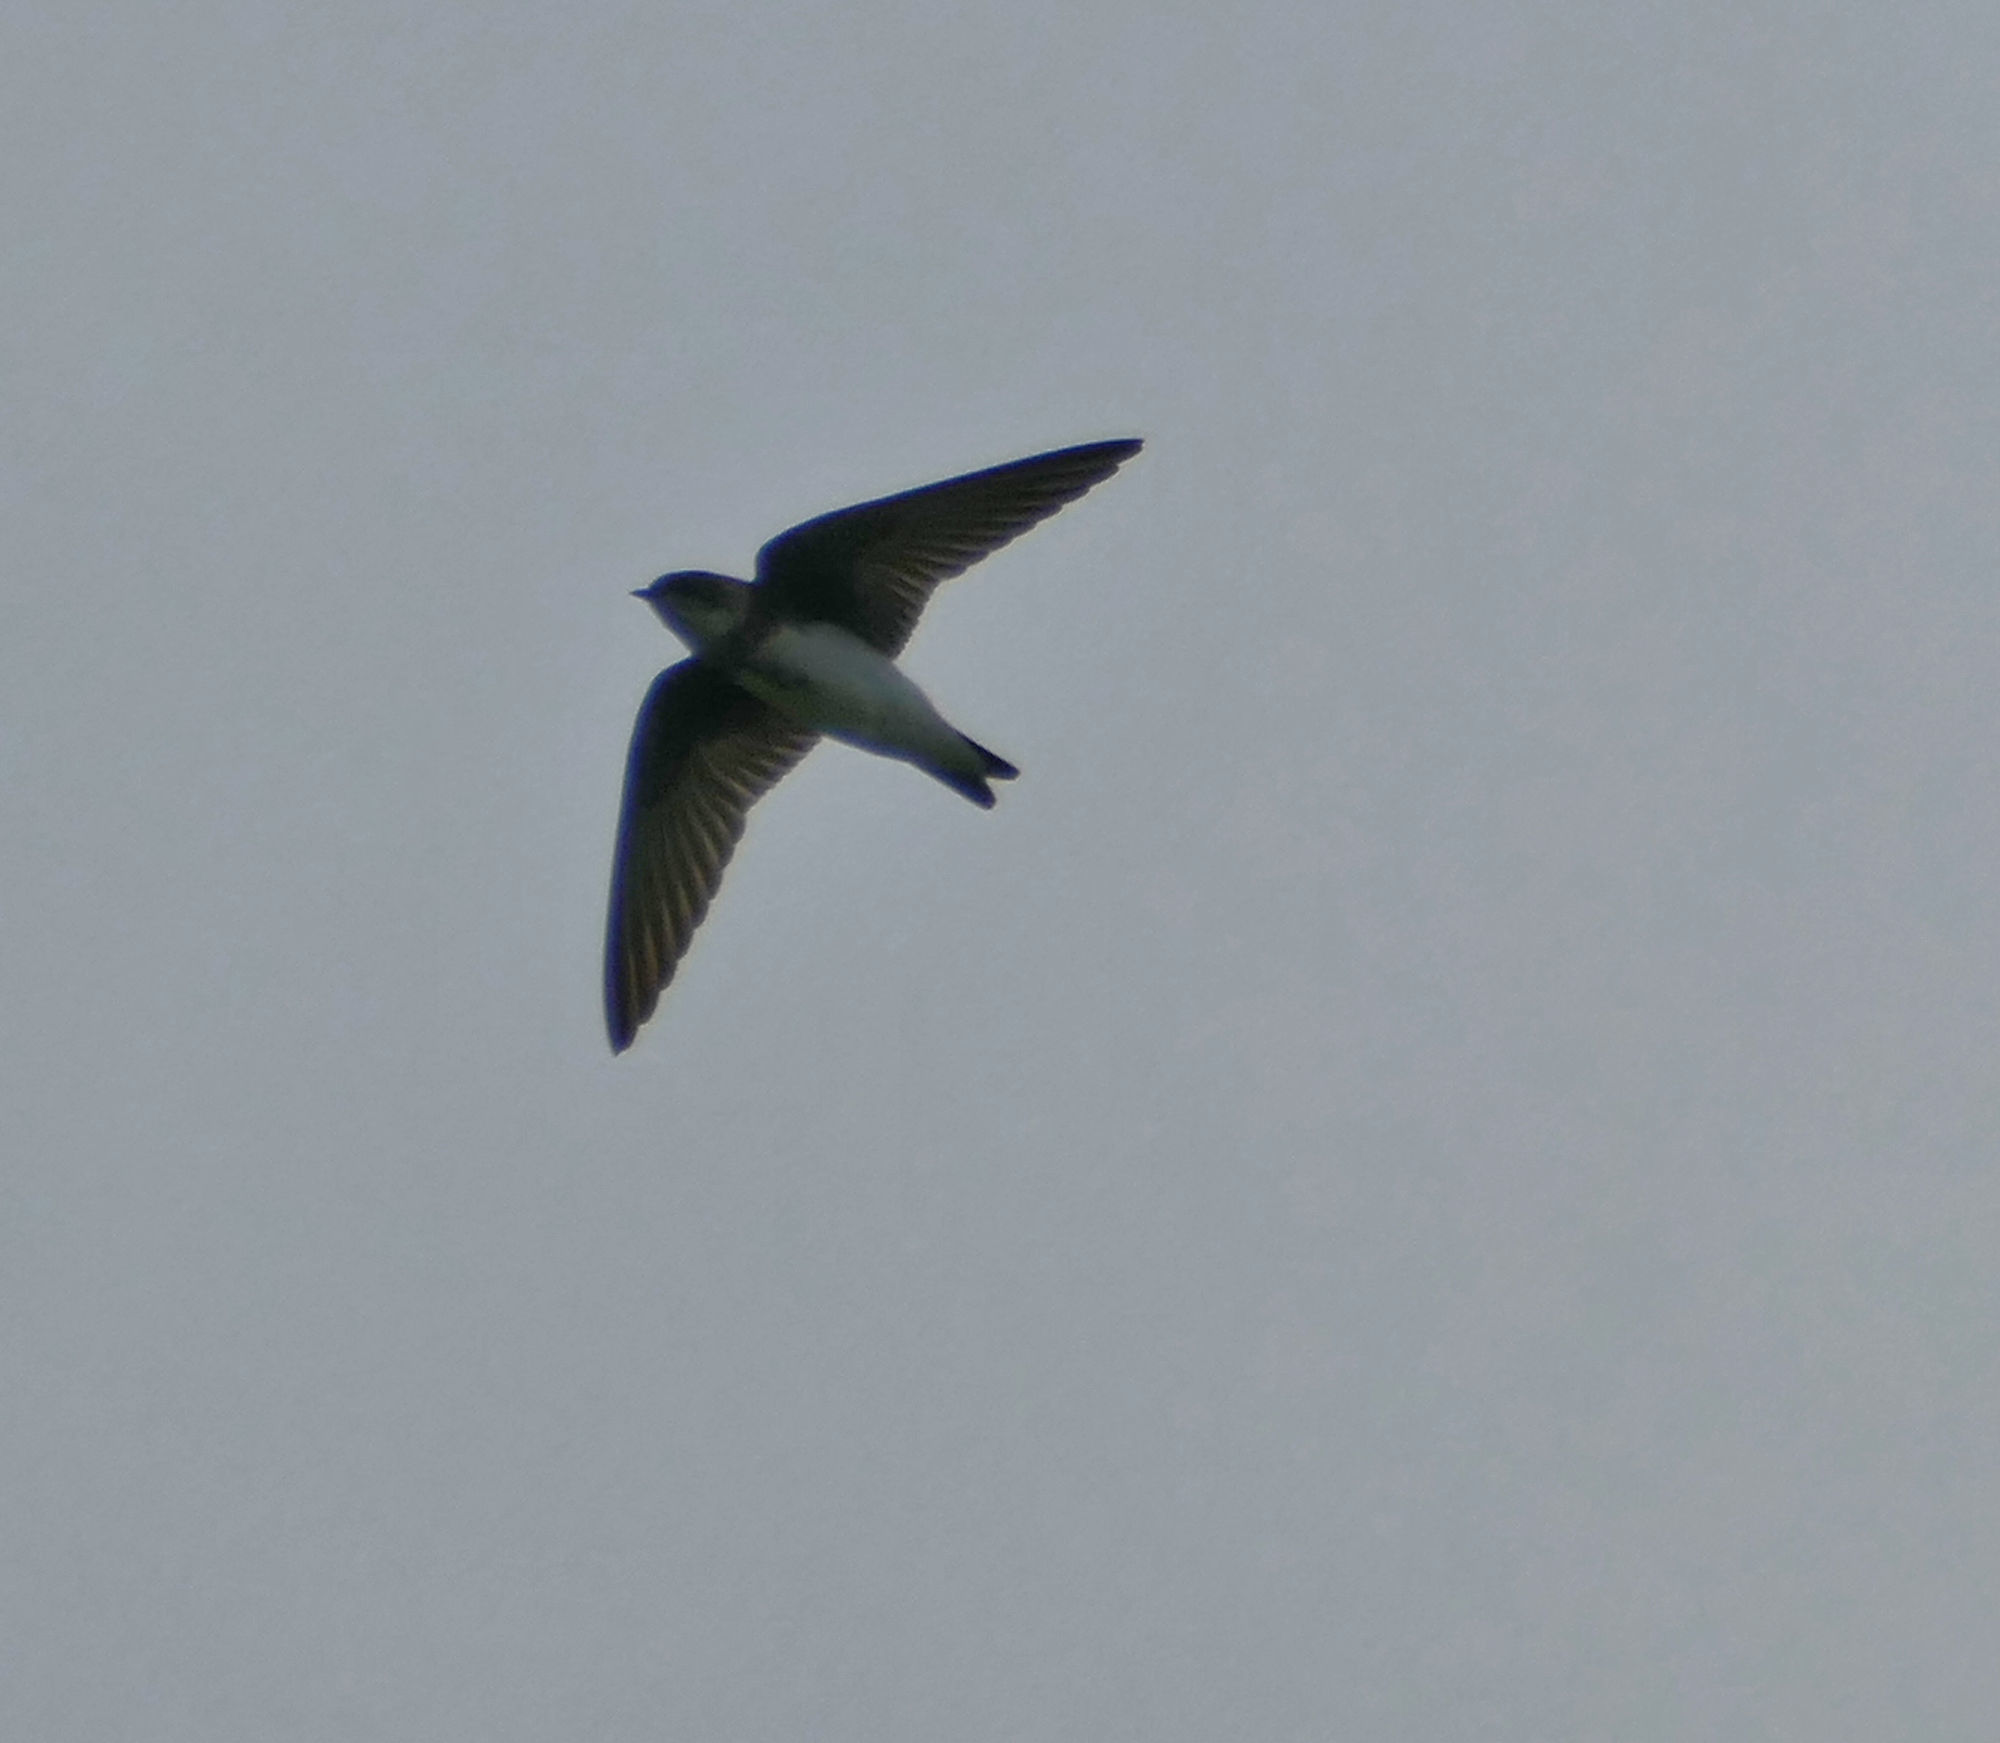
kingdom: Animalia
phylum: Chordata
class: Aves
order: Passeriformes
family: Hirundinidae
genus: Riparia
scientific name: Riparia riparia
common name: Sand martin
